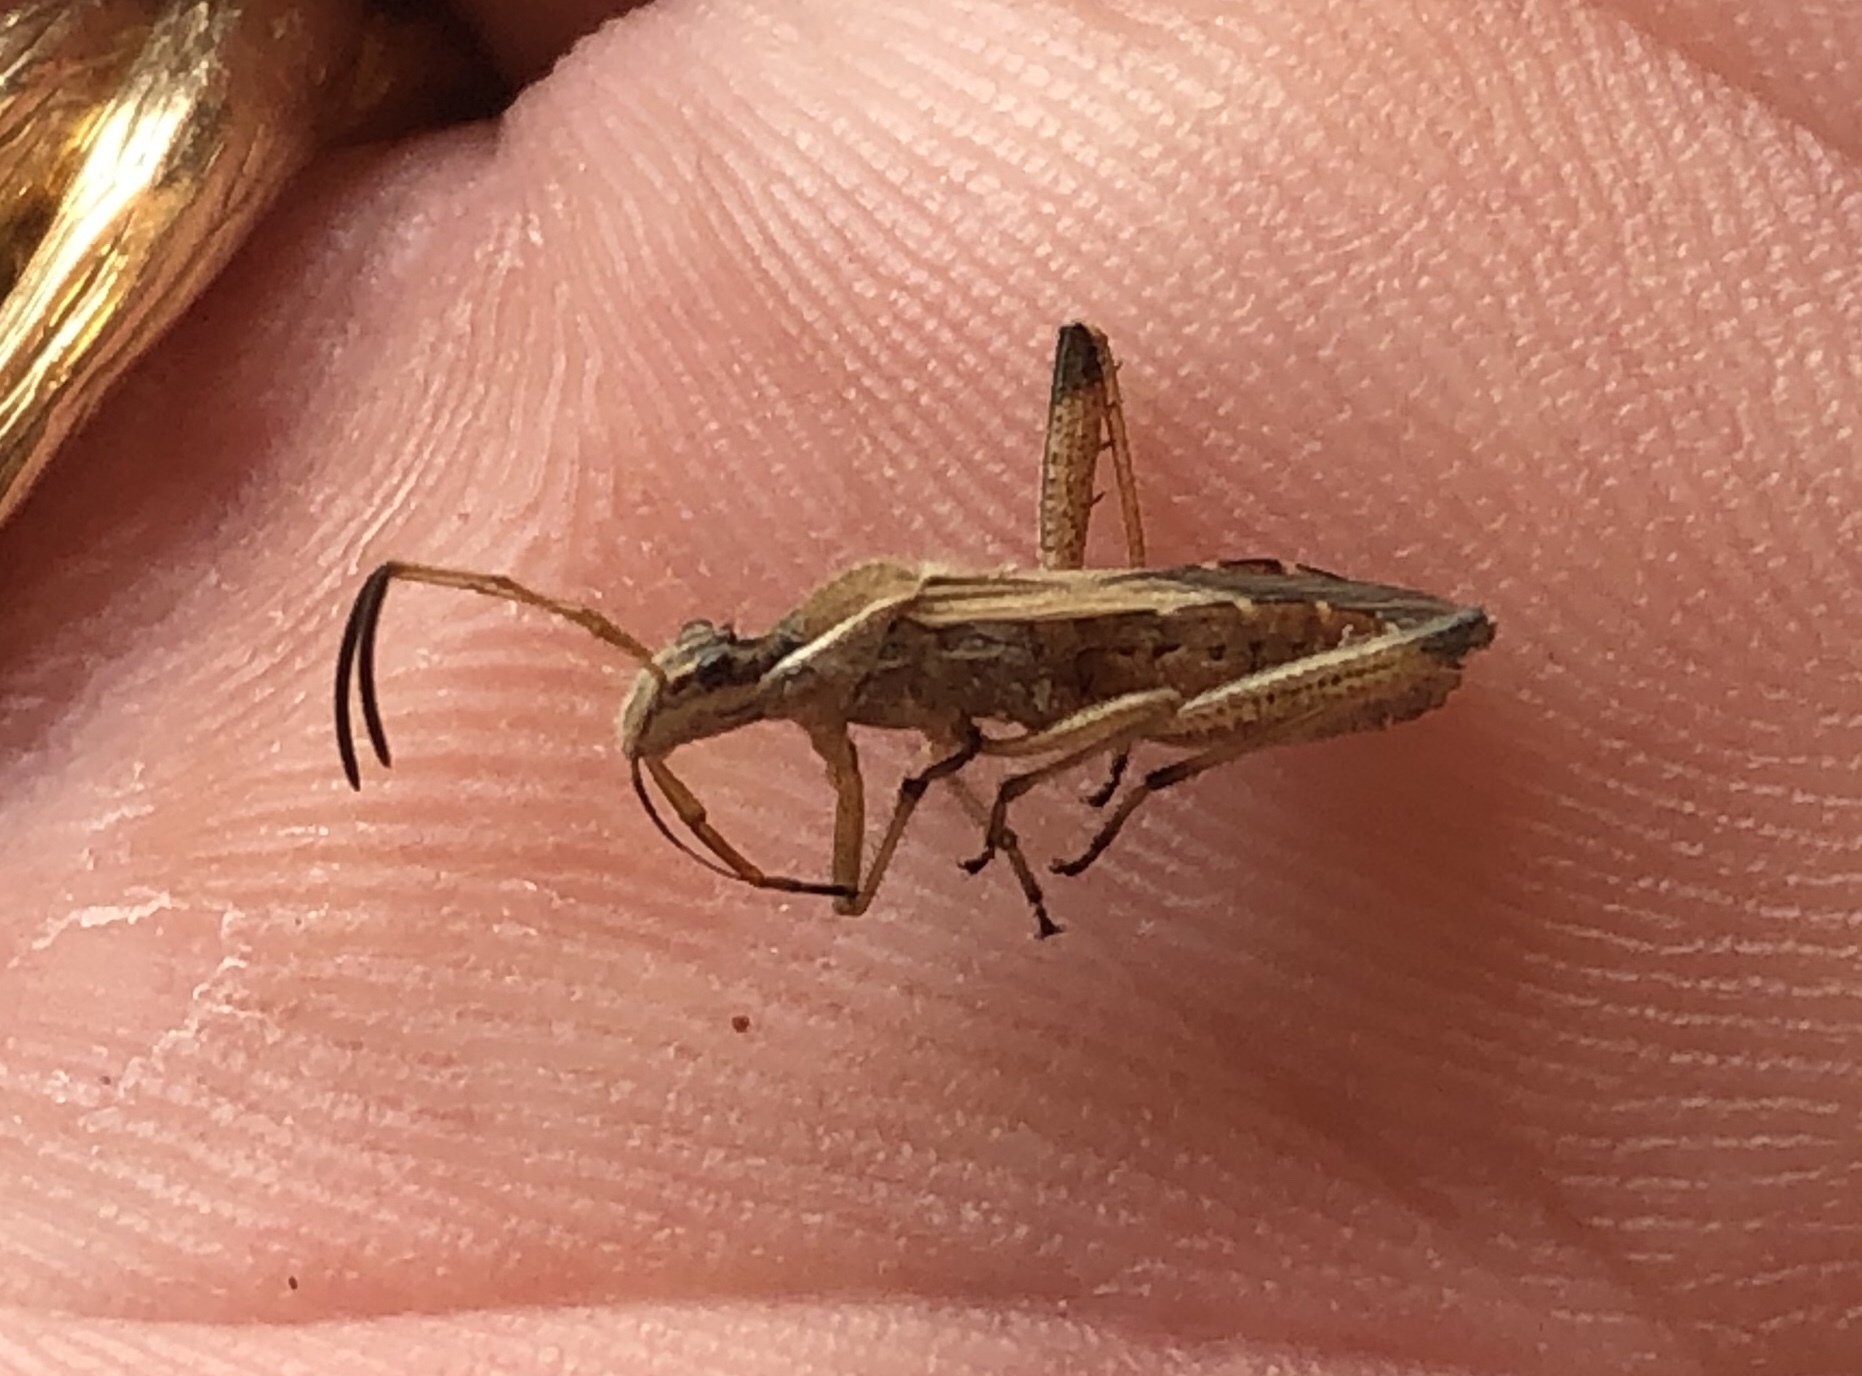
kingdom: Animalia
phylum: Arthropoda
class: Insecta
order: Hemiptera
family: Alydidae
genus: Alydus
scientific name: Alydus pilosulus
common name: Broad-headed bug
